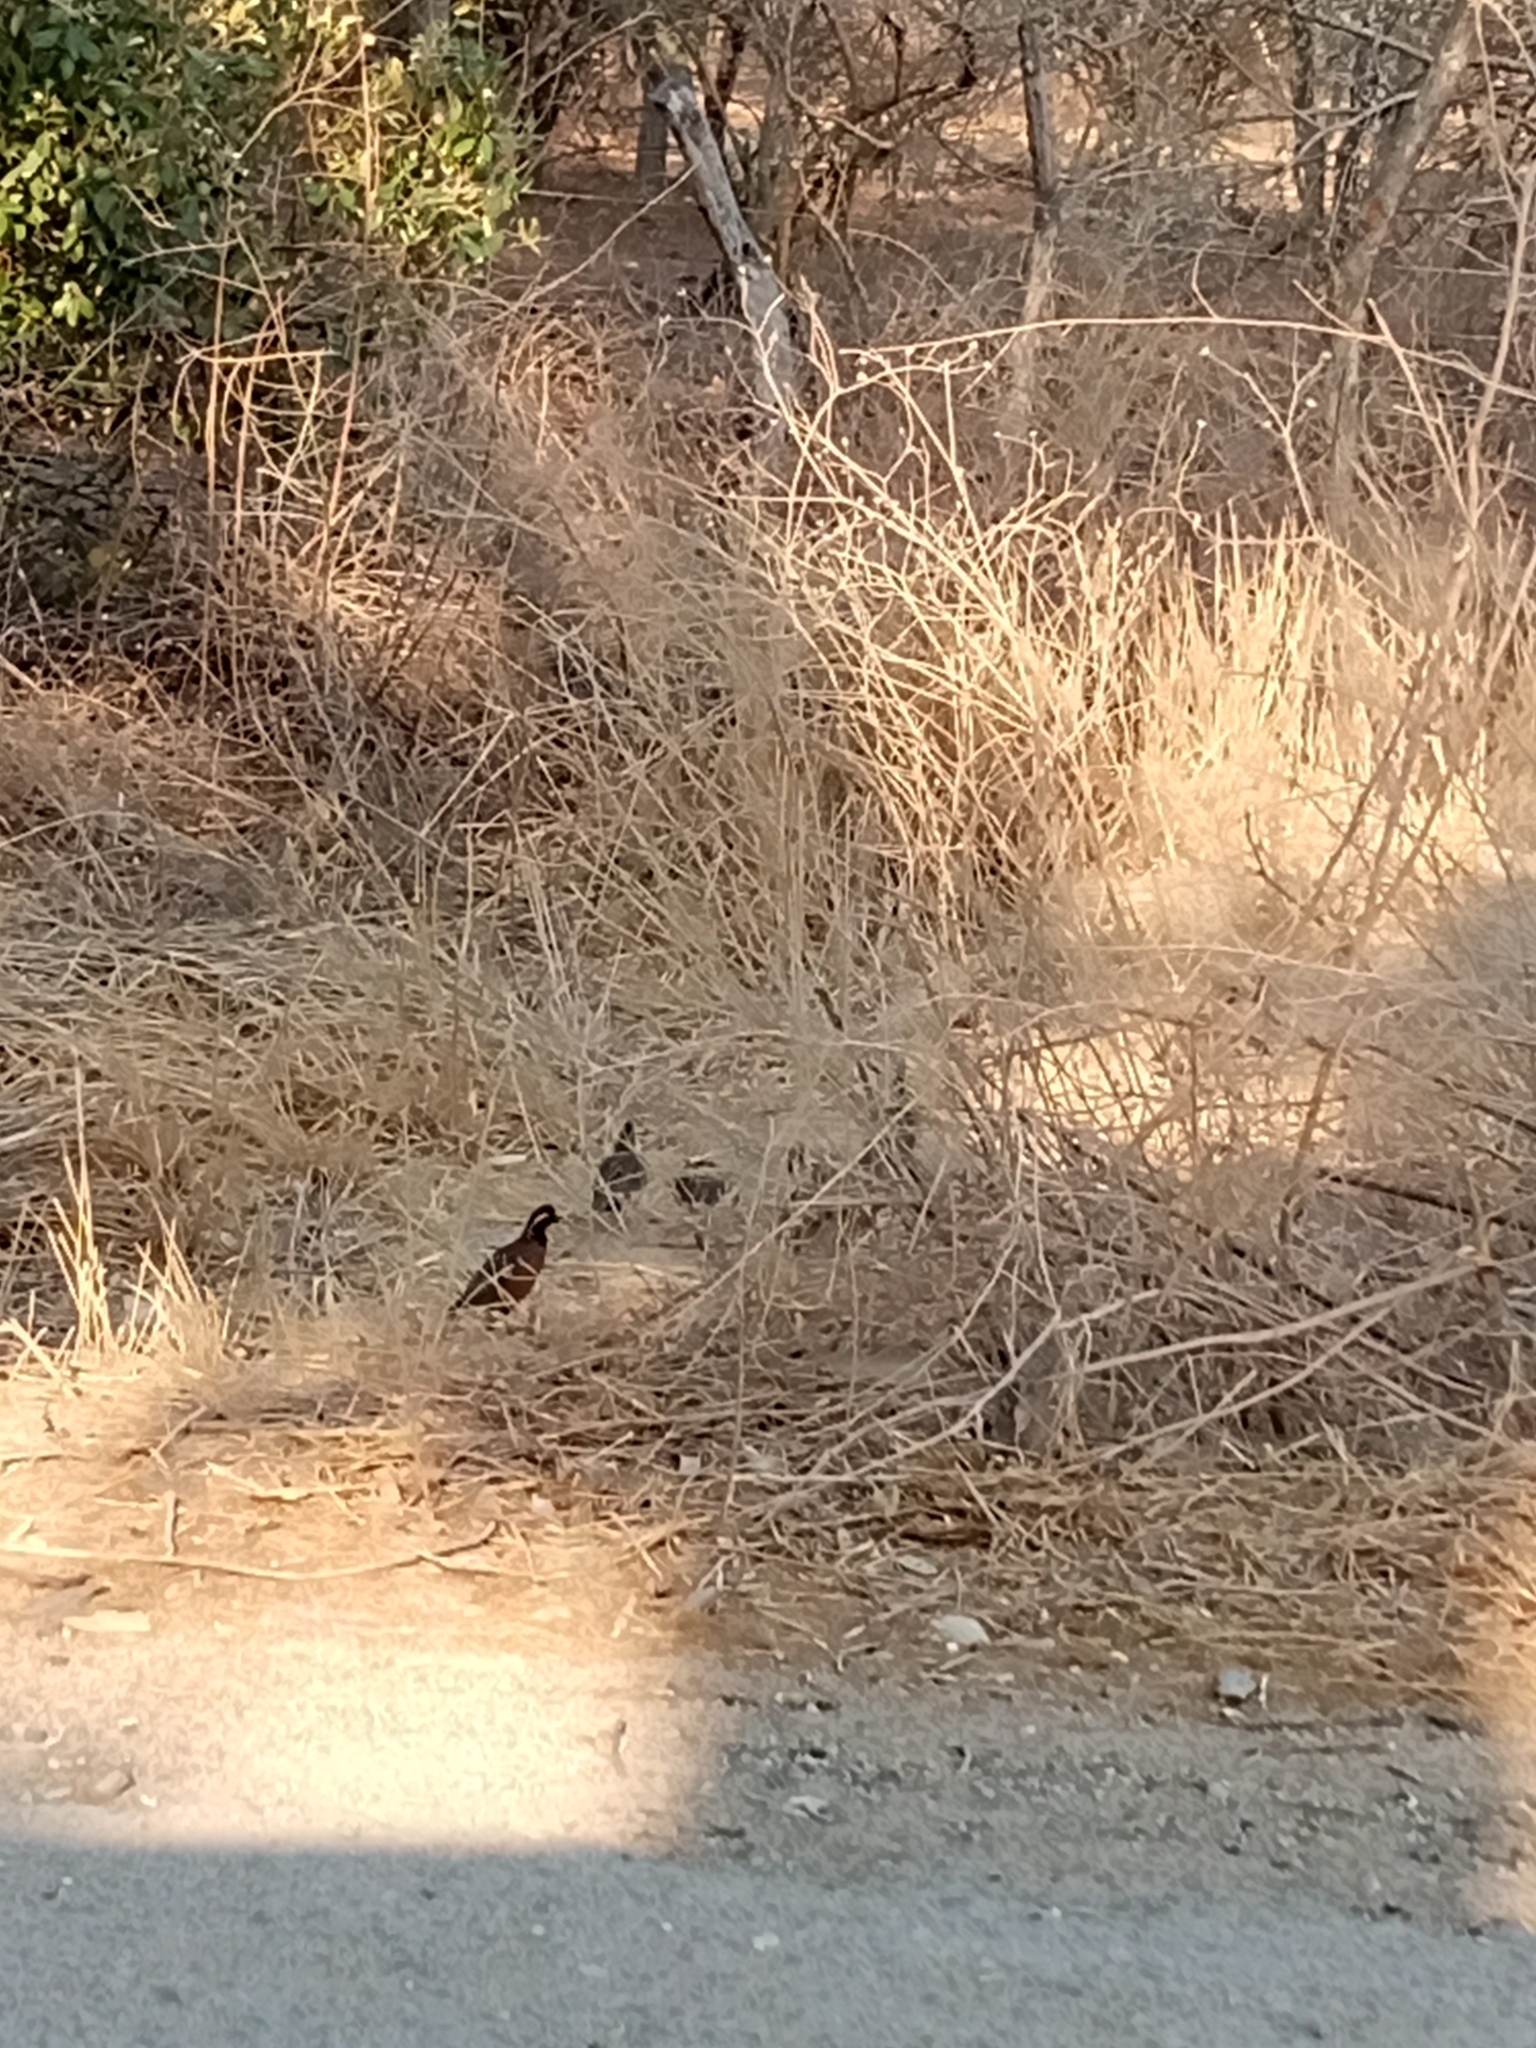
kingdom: Animalia
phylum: Chordata
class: Aves
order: Galliformes
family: Odontophoridae
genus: Colinus
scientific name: Colinus virginianus
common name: Northern bobwhite
